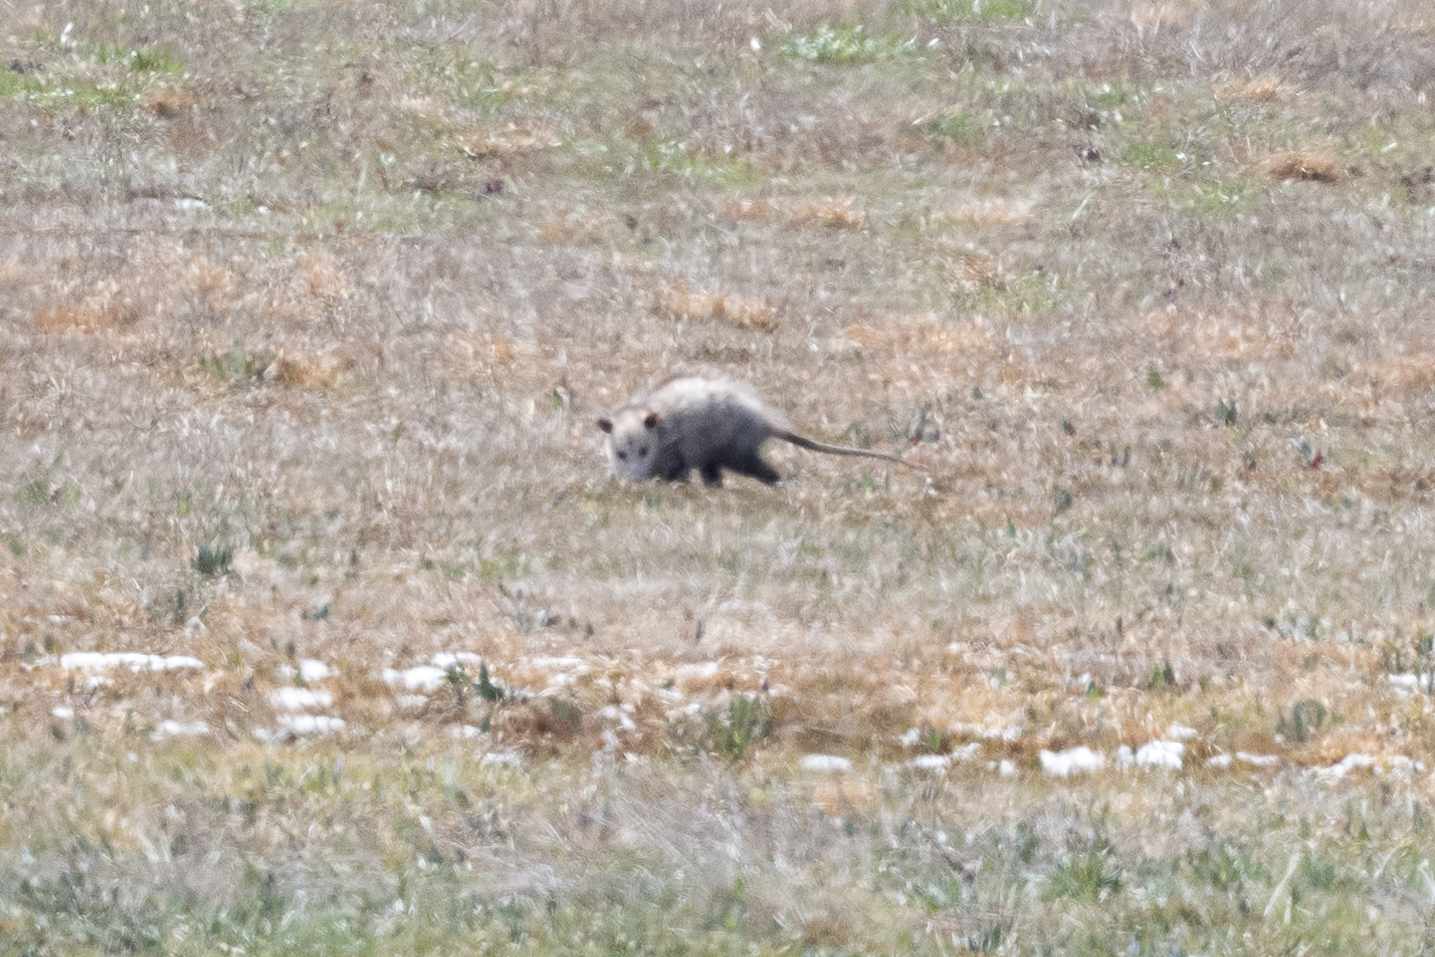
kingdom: Animalia
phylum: Chordata
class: Mammalia
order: Didelphimorphia
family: Didelphidae
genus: Didelphis
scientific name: Didelphis virginiana
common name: Virginia opossum
